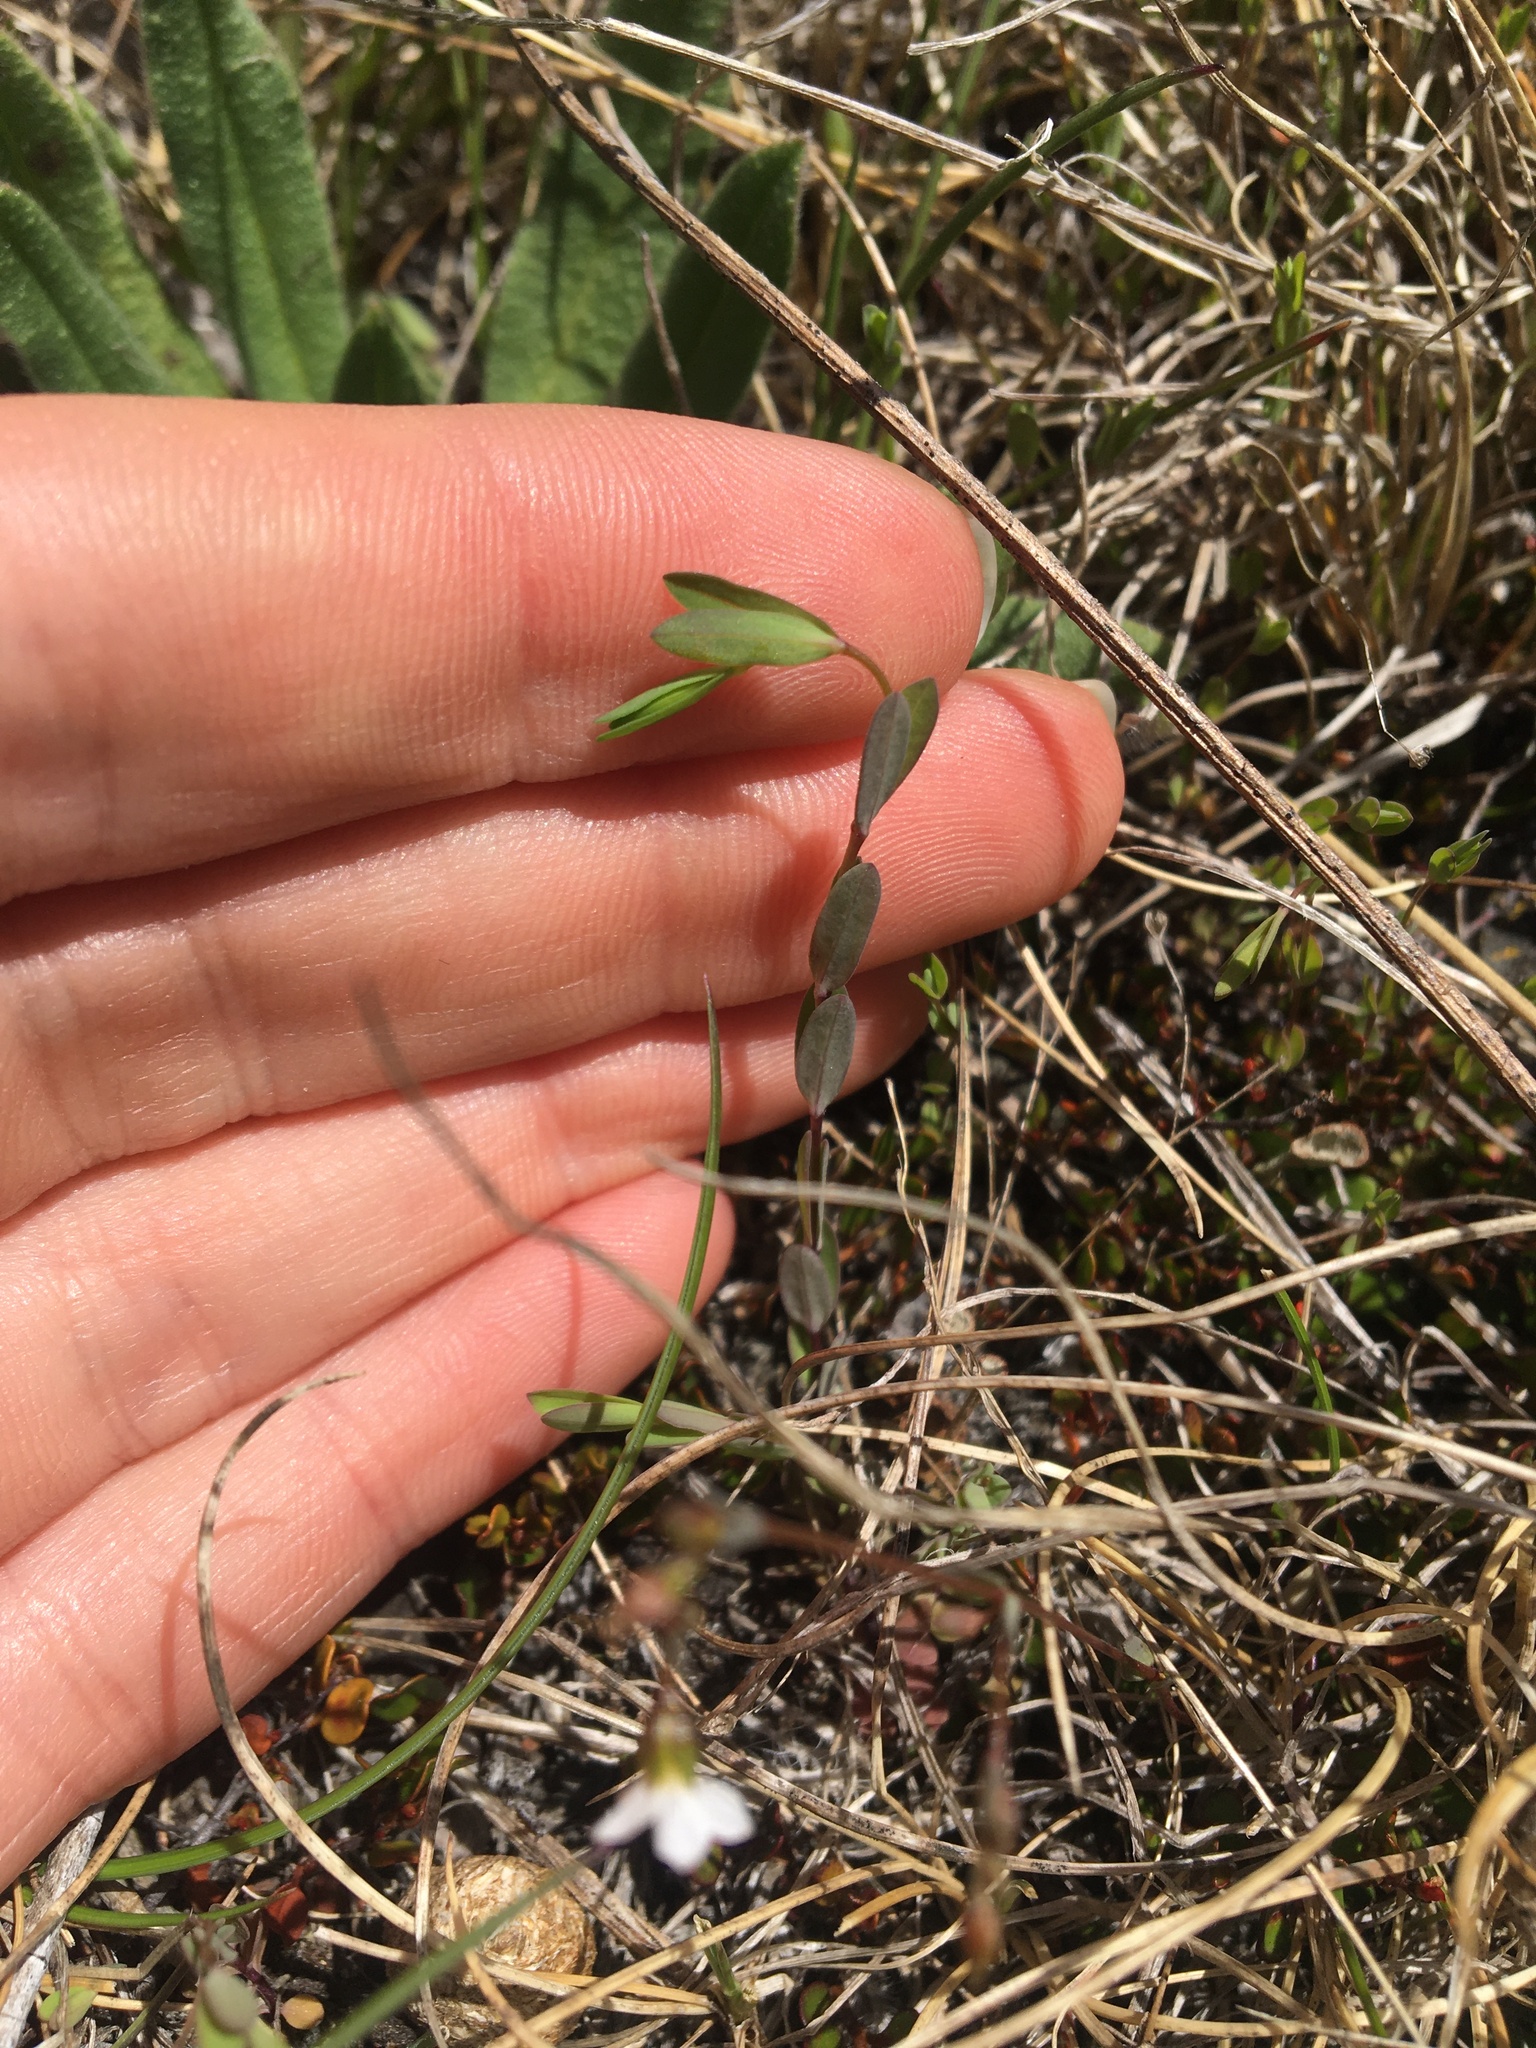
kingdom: Plantae
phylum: Tracheophyta
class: Magnoliopsida
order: Malpighiales
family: Linaceae
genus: Linum
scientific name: Linum catharticum
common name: Fairy flax
